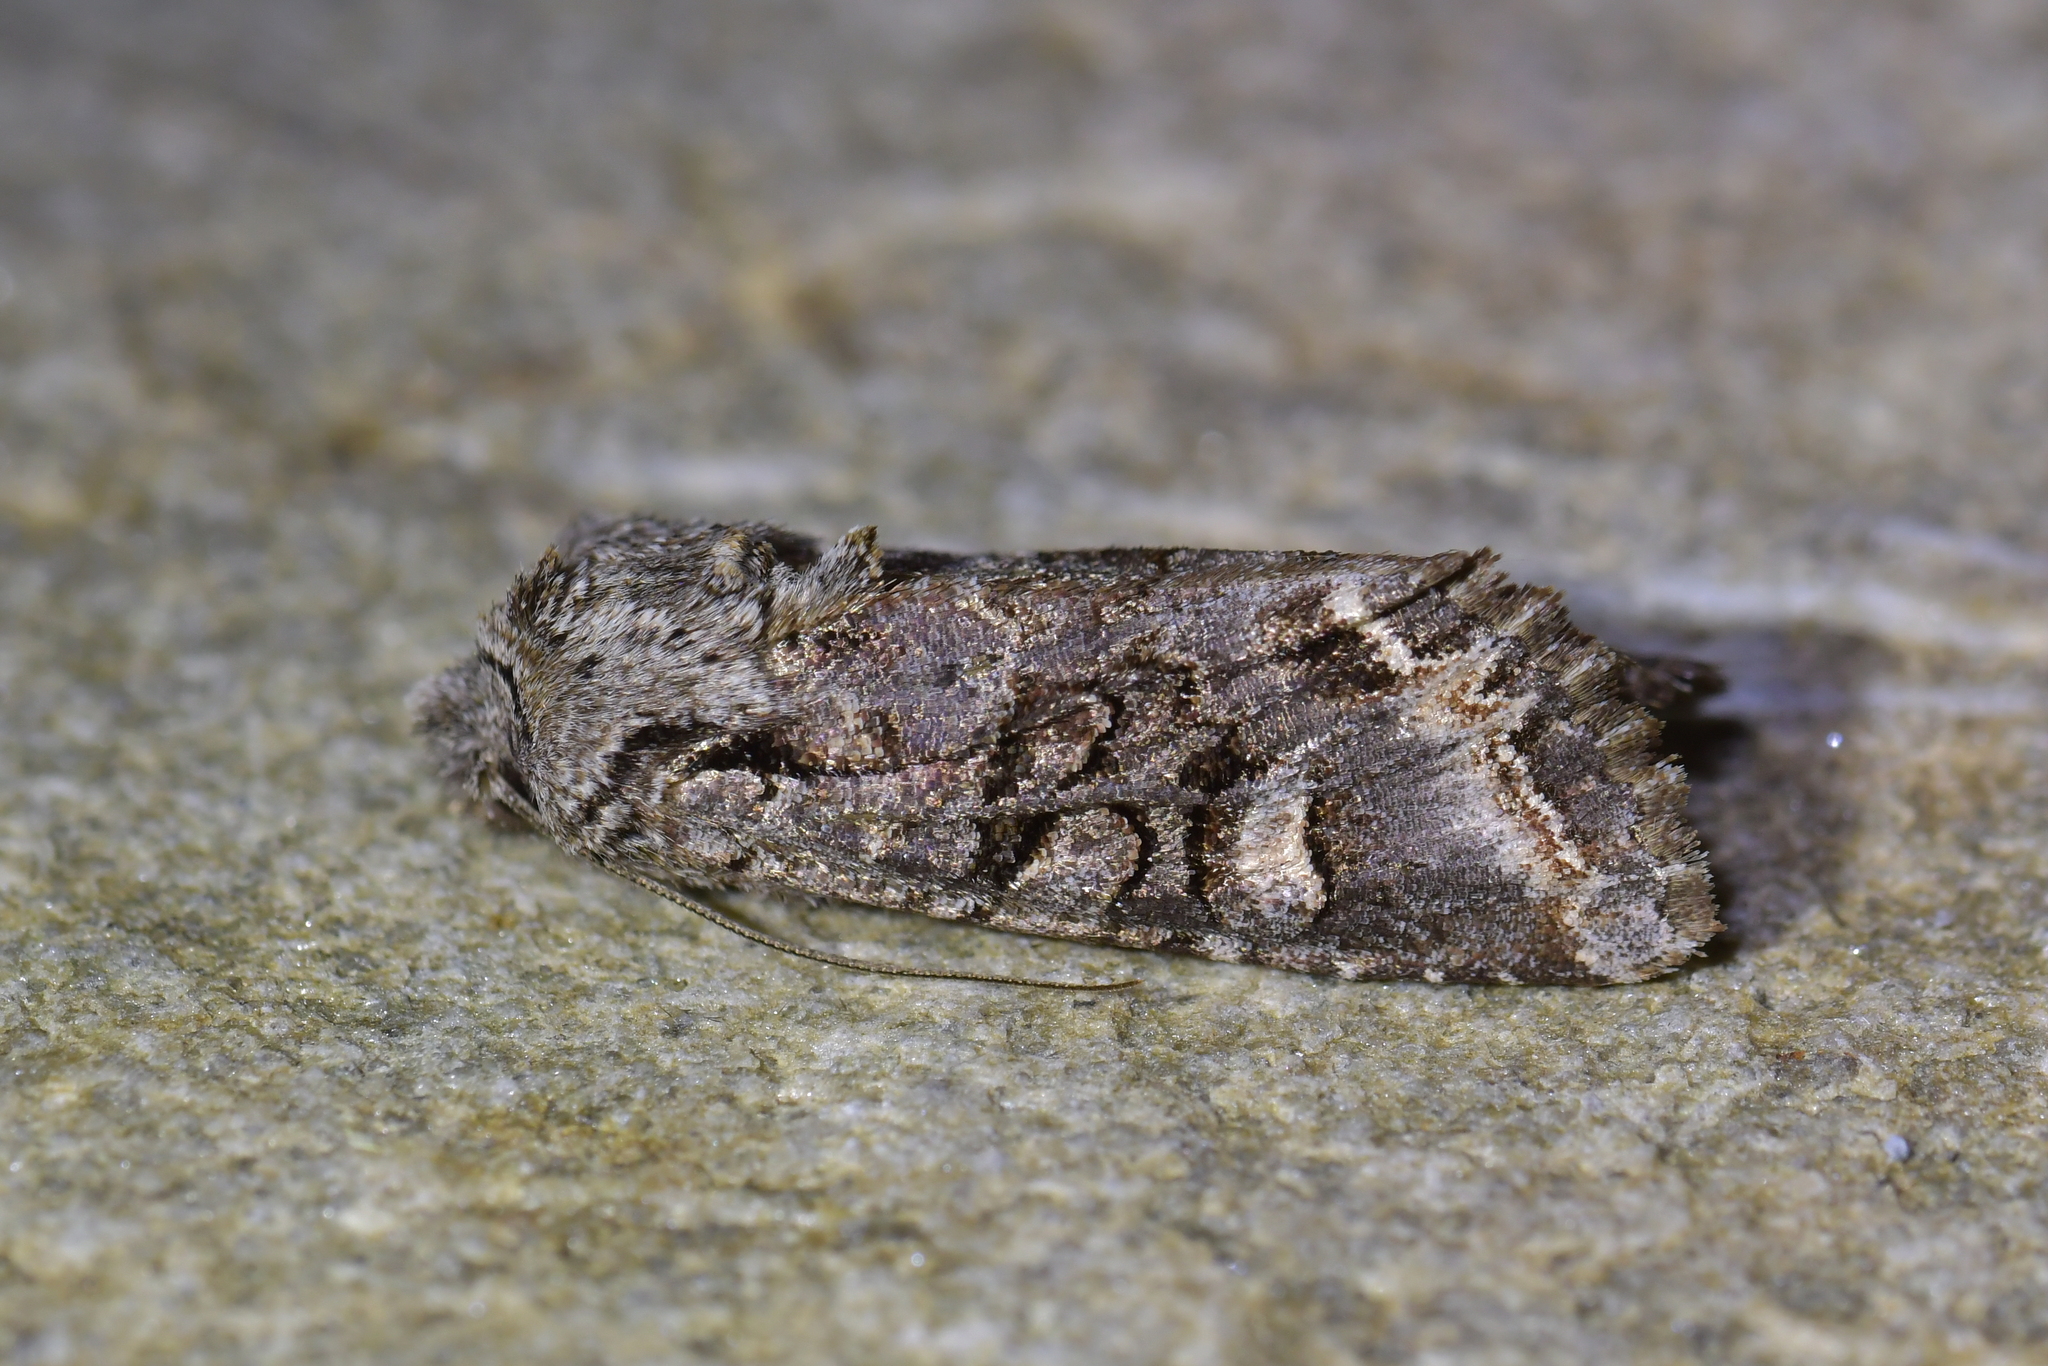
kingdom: Animalia
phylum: Arthropoda
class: Insecta
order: Lepidoptera
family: Noctuidae
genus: Ichneutica
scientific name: Ichneutica skelloni
